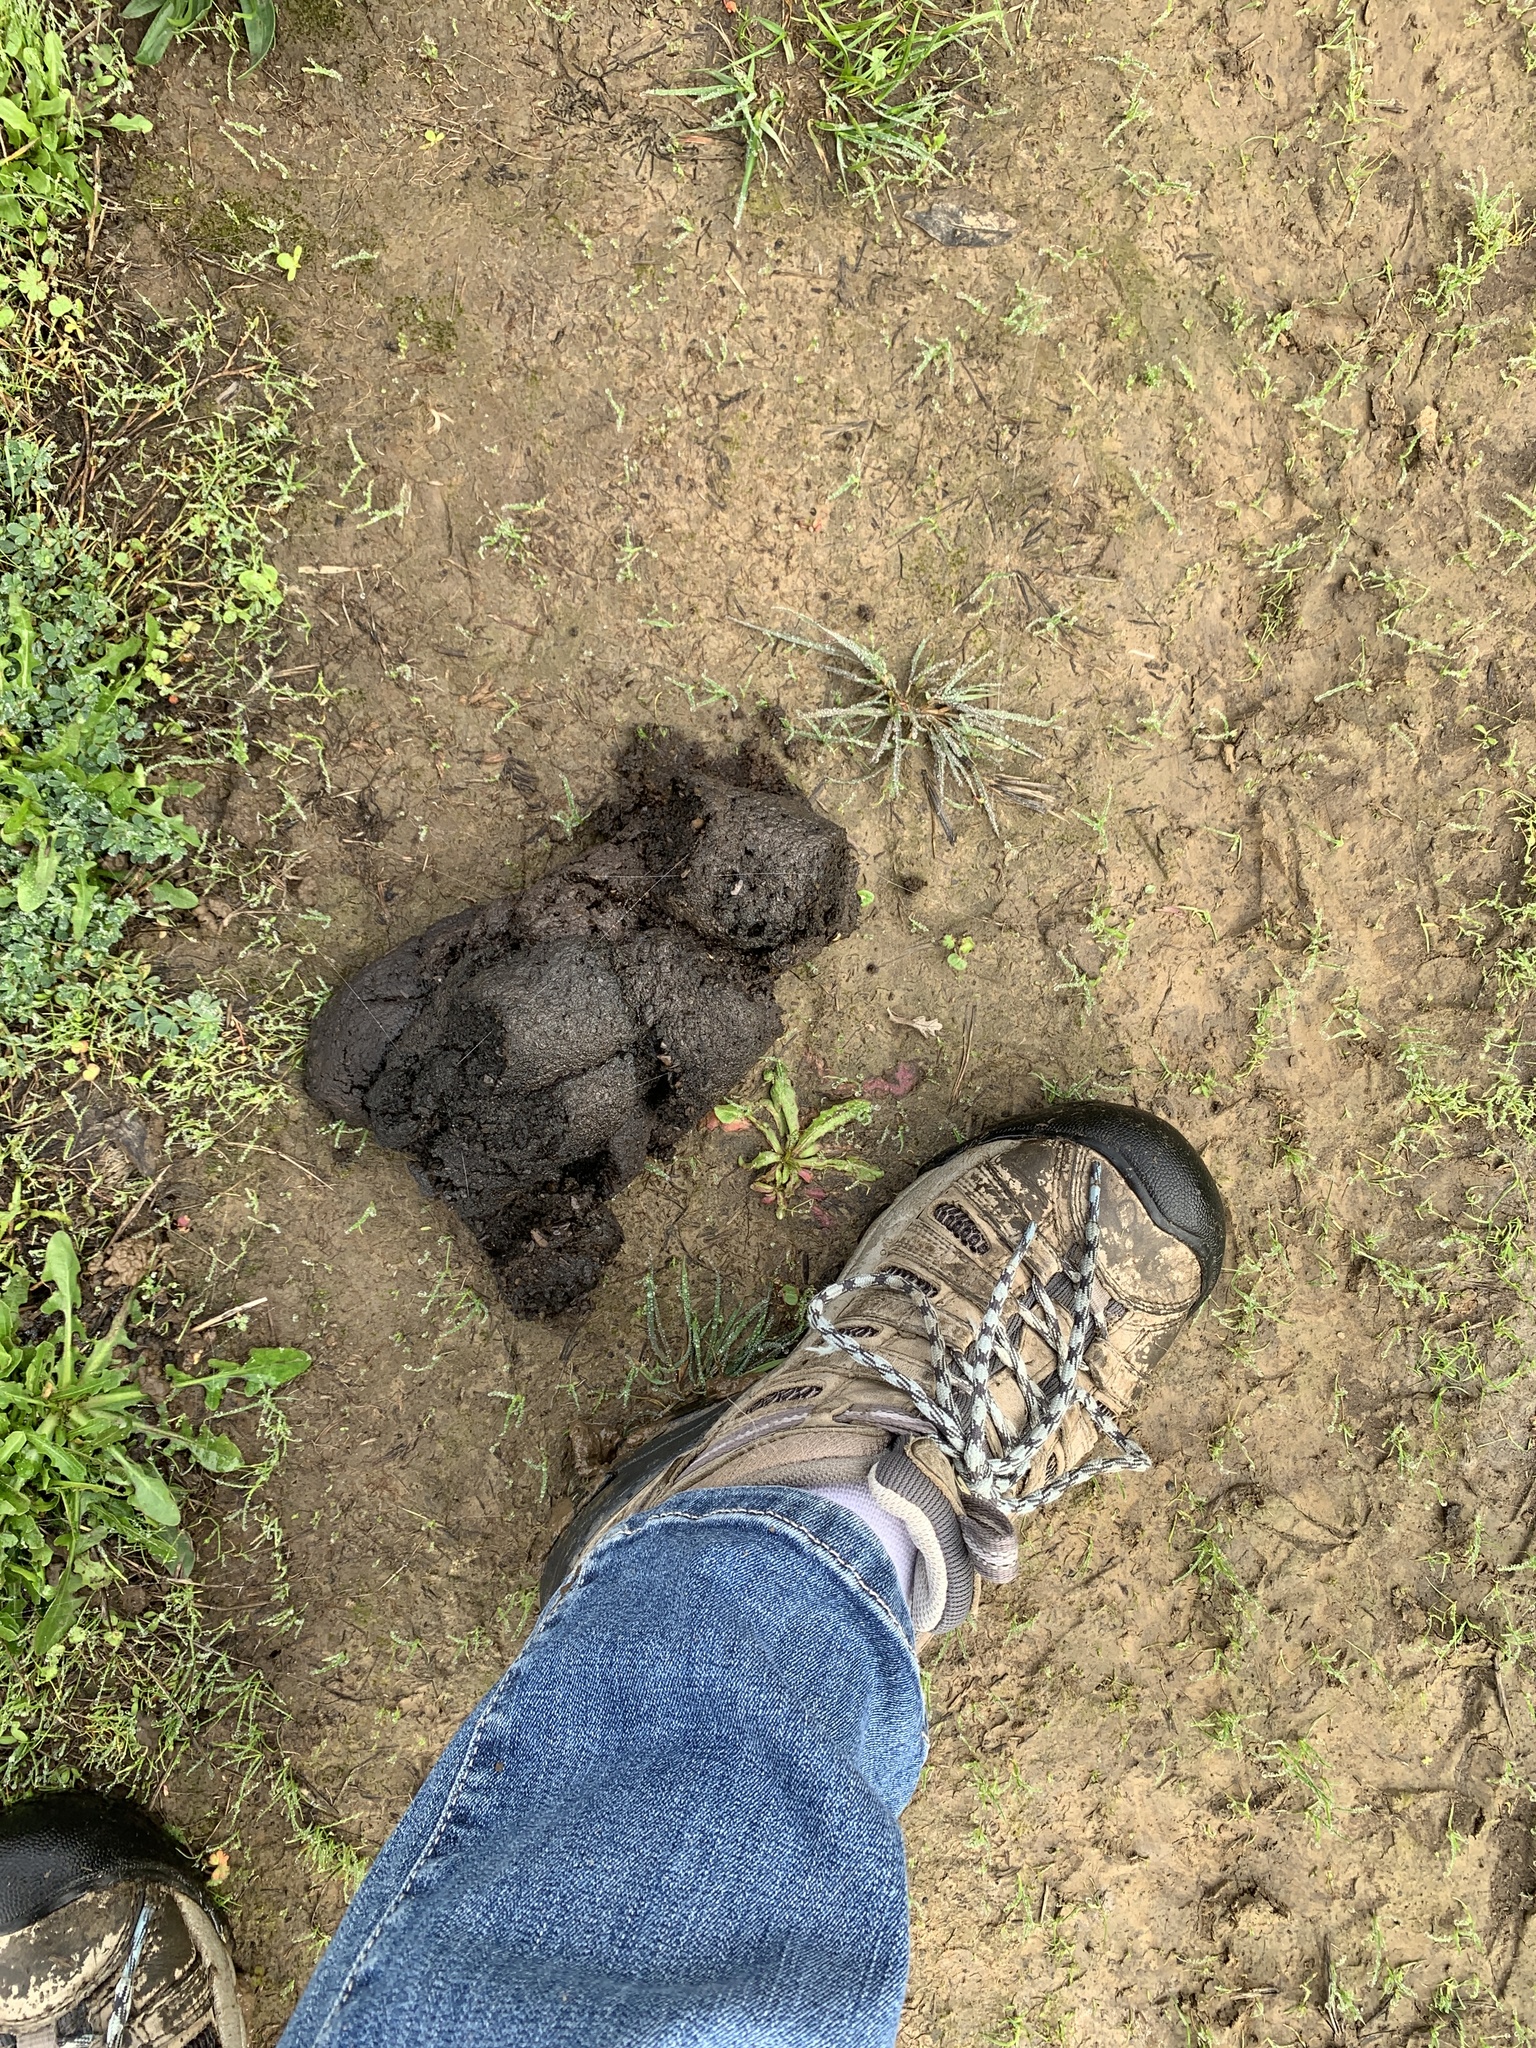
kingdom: Animalia
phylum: Chordata
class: Mammalia
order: Carnivora
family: Ursidae
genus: Ursus
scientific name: Ursus americanus
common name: American black bear
